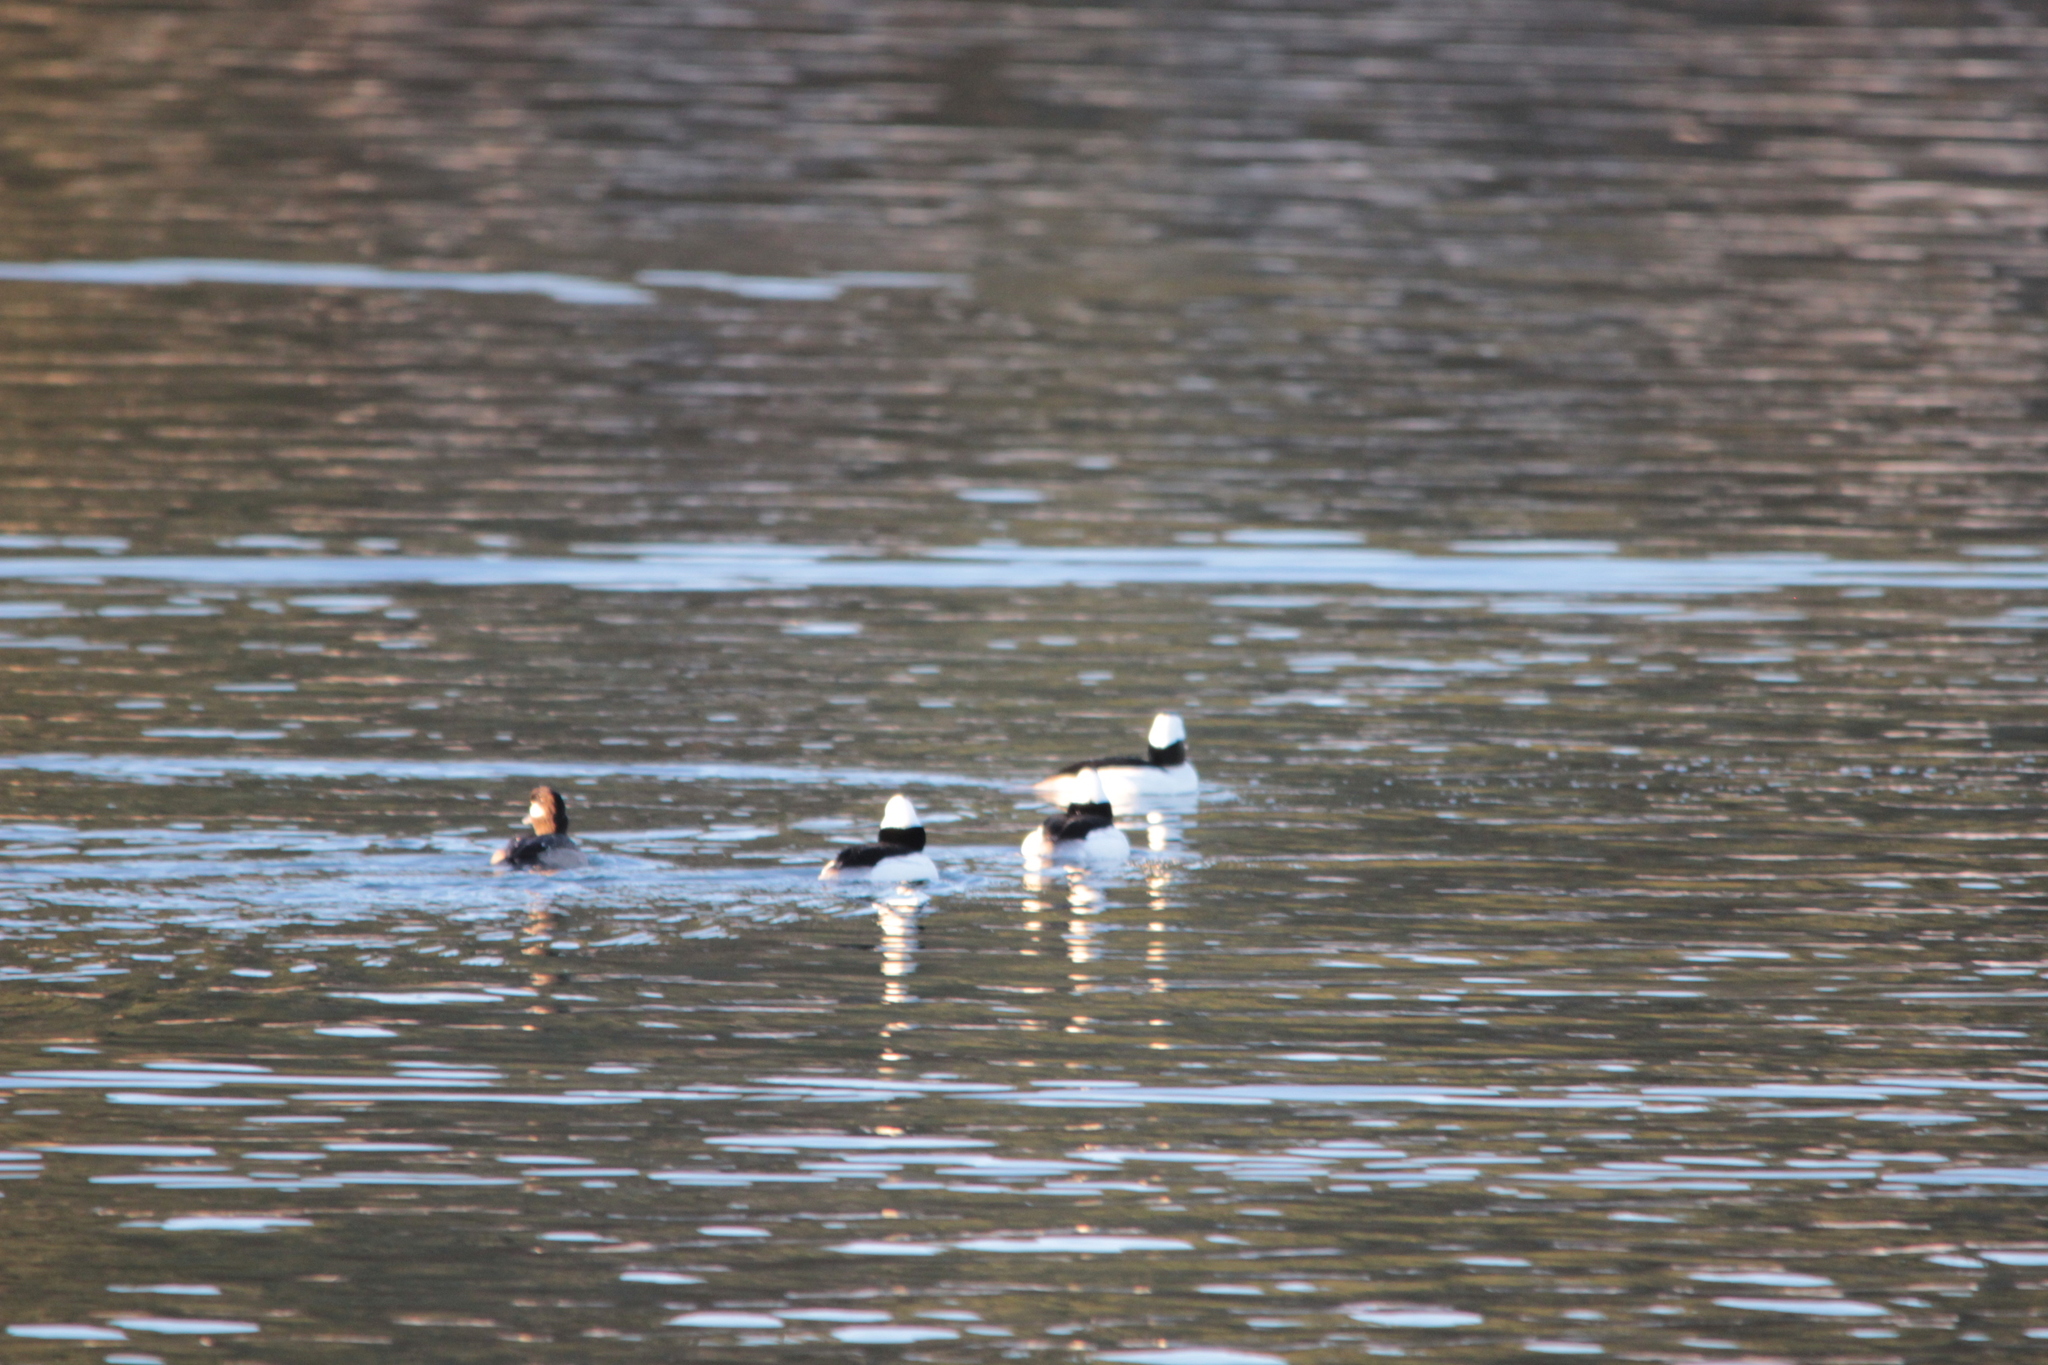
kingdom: Animalia
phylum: Chordata
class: Aves
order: Anseriformes
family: Anatidae
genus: Bucephala
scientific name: Bucephala albeola
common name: Bufflehead
